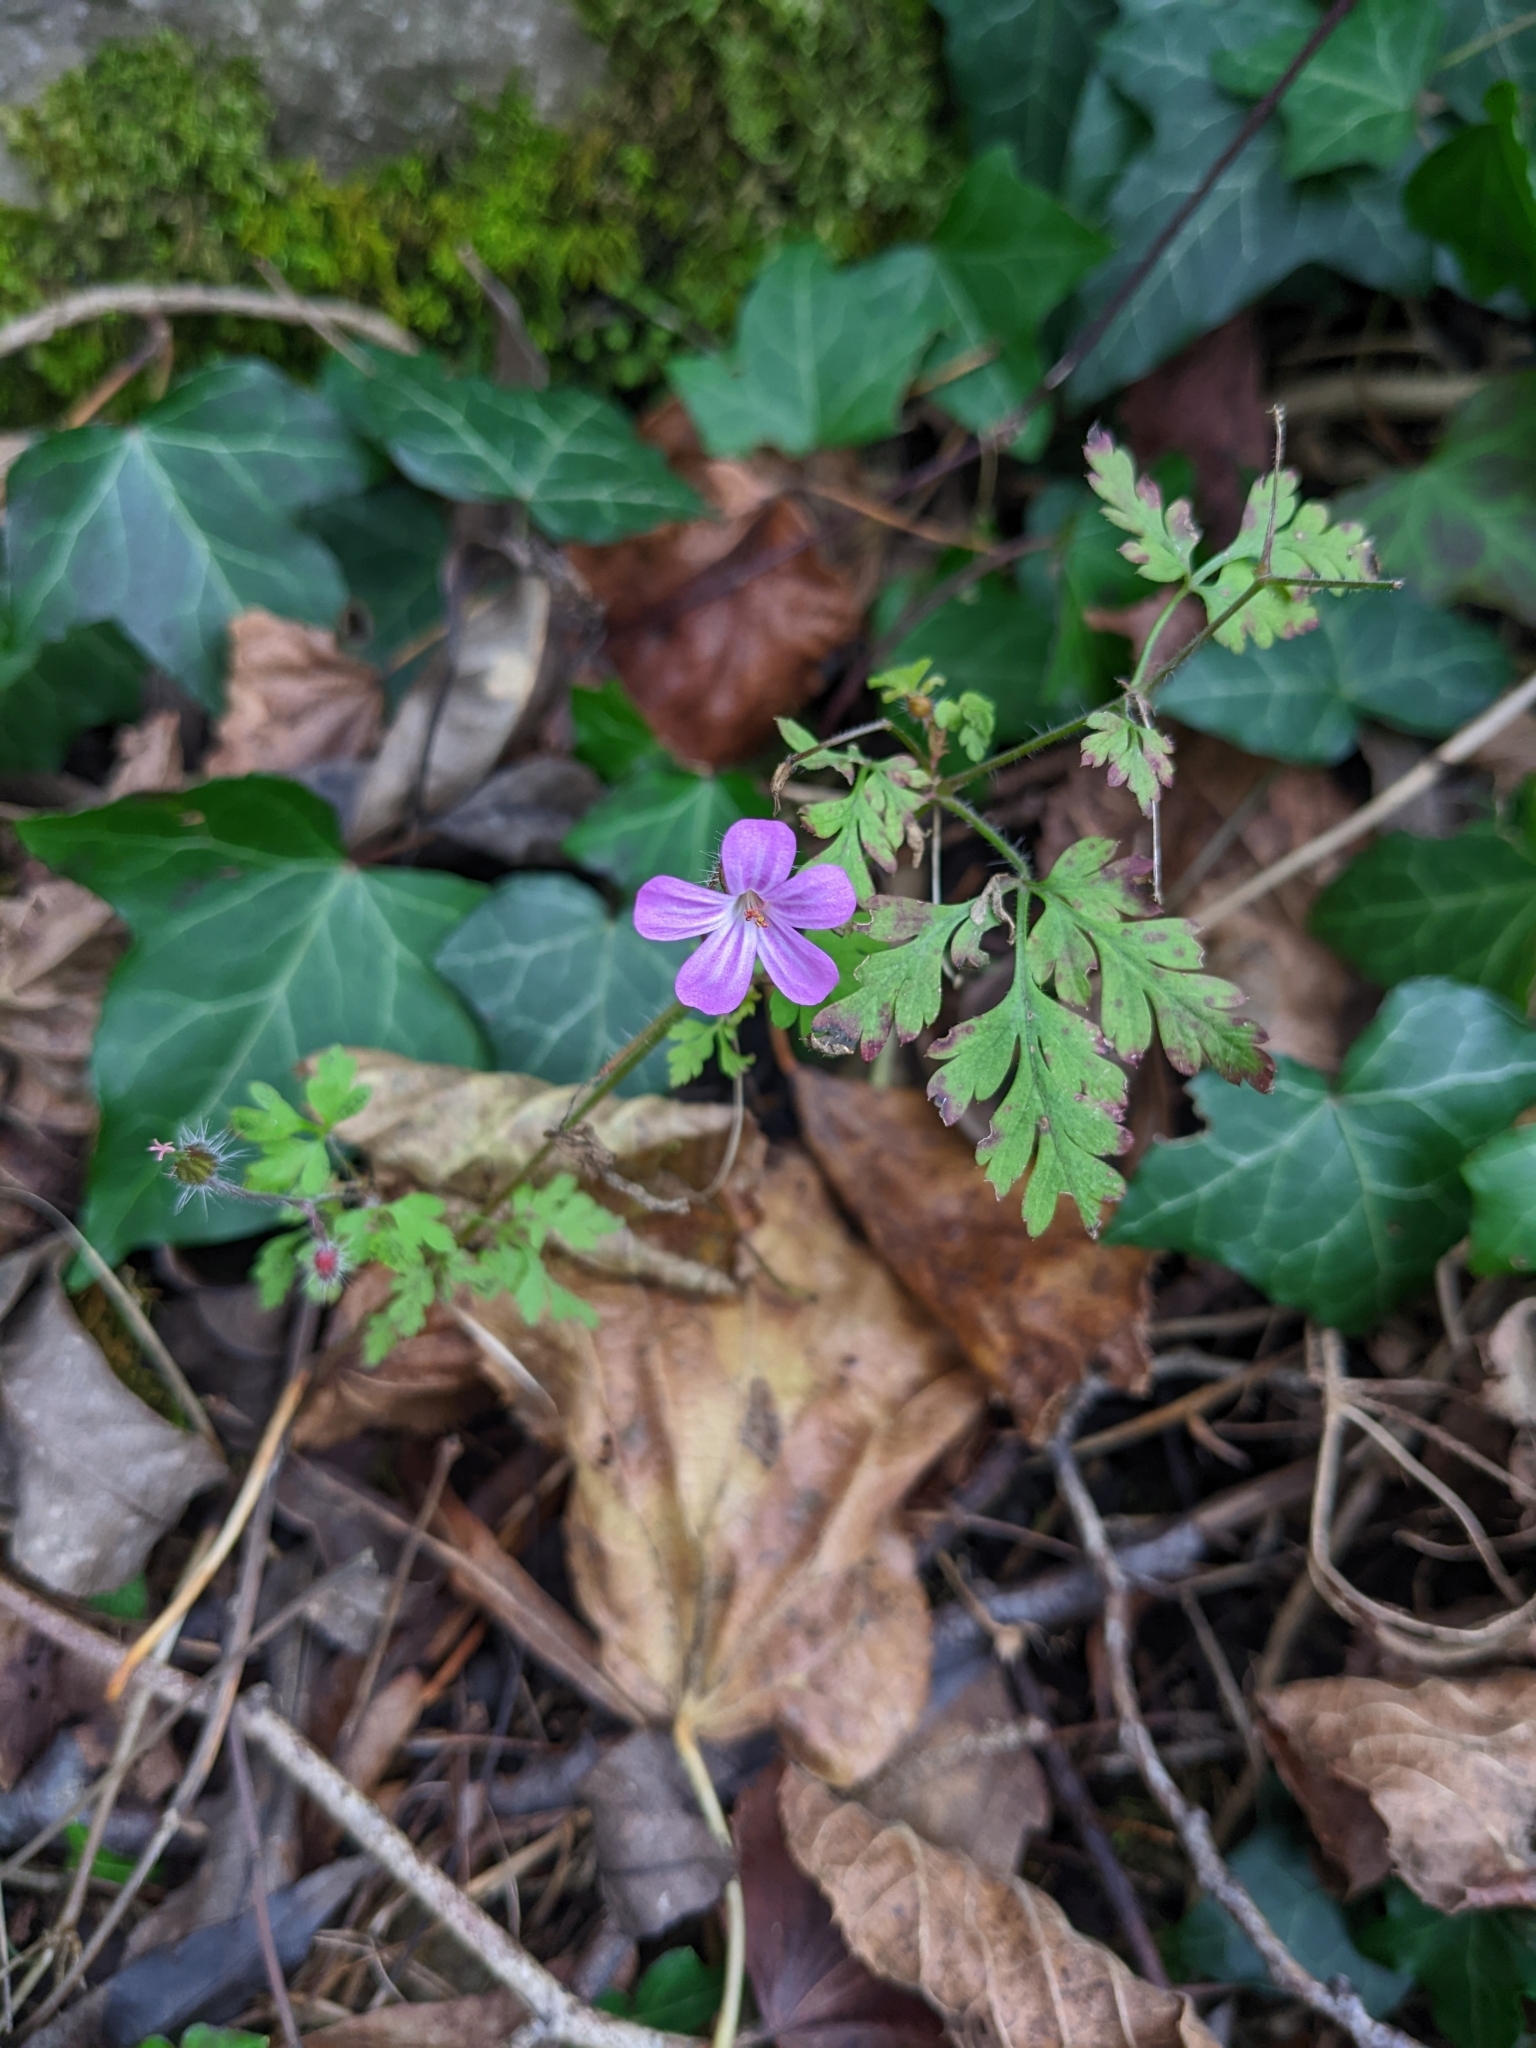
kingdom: Plantae
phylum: Tracheophyta
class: Magnoliopsida
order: Geraniales
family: Geraniaceae
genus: Geranium
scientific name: Geranium robertianum
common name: Herb-robert
